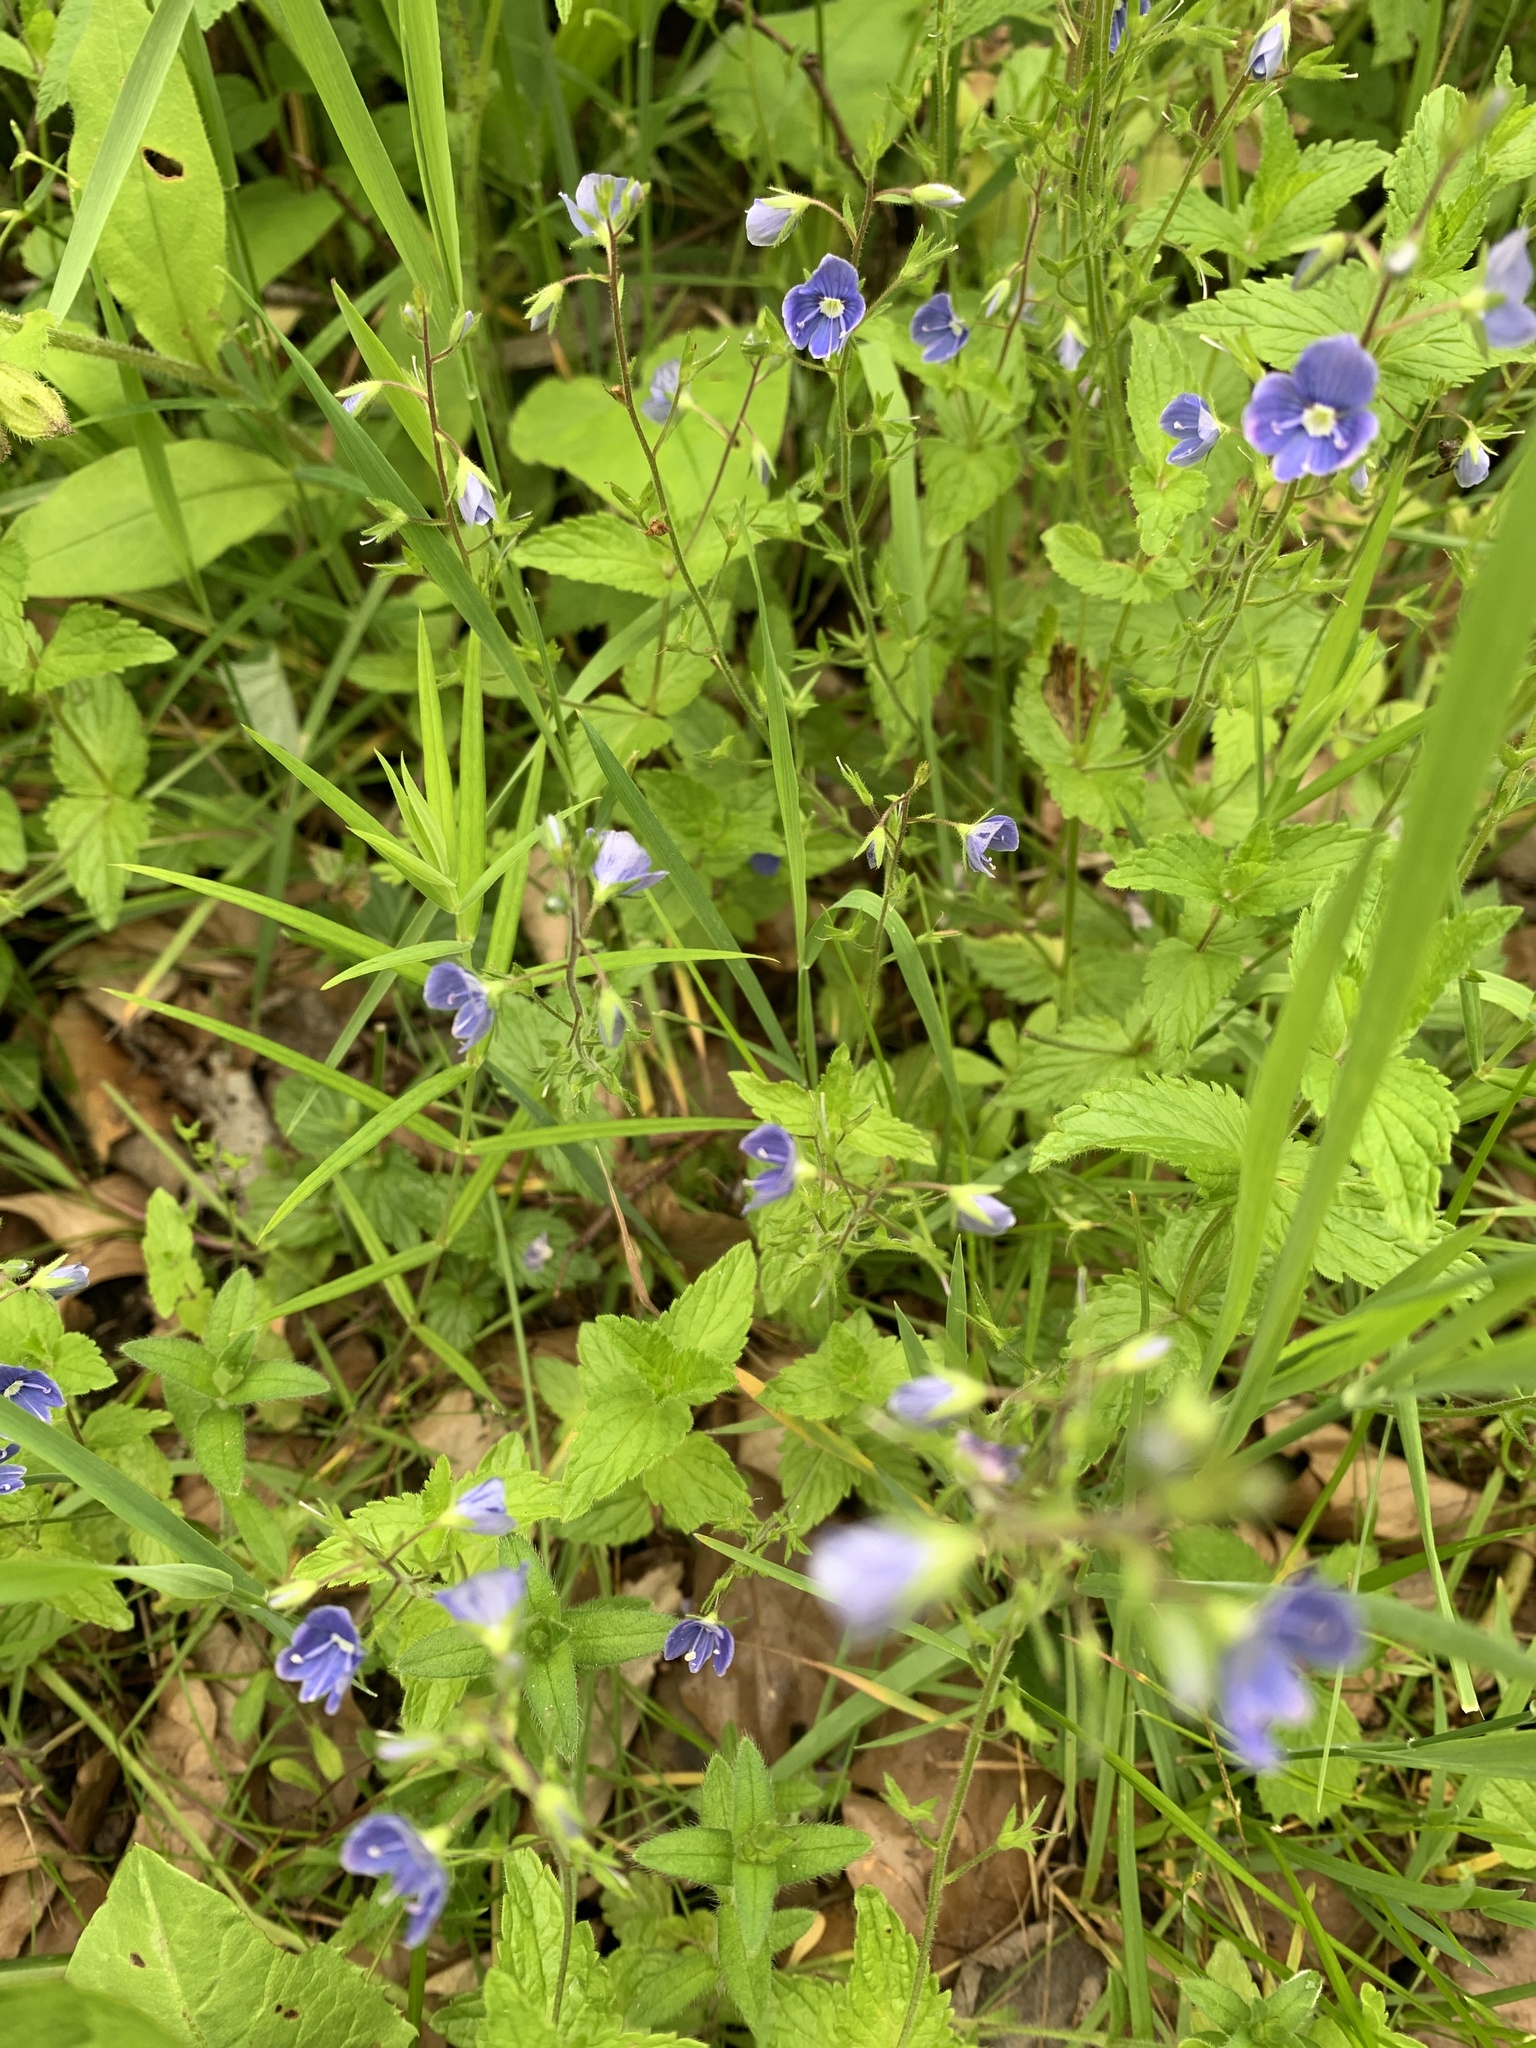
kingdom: Plantae
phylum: Tracheophyta
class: Magnoliopsida
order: Lamiales
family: Plantaginaceae
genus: Veronica
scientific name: Veronica chamaedrys
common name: Germander speedwell
